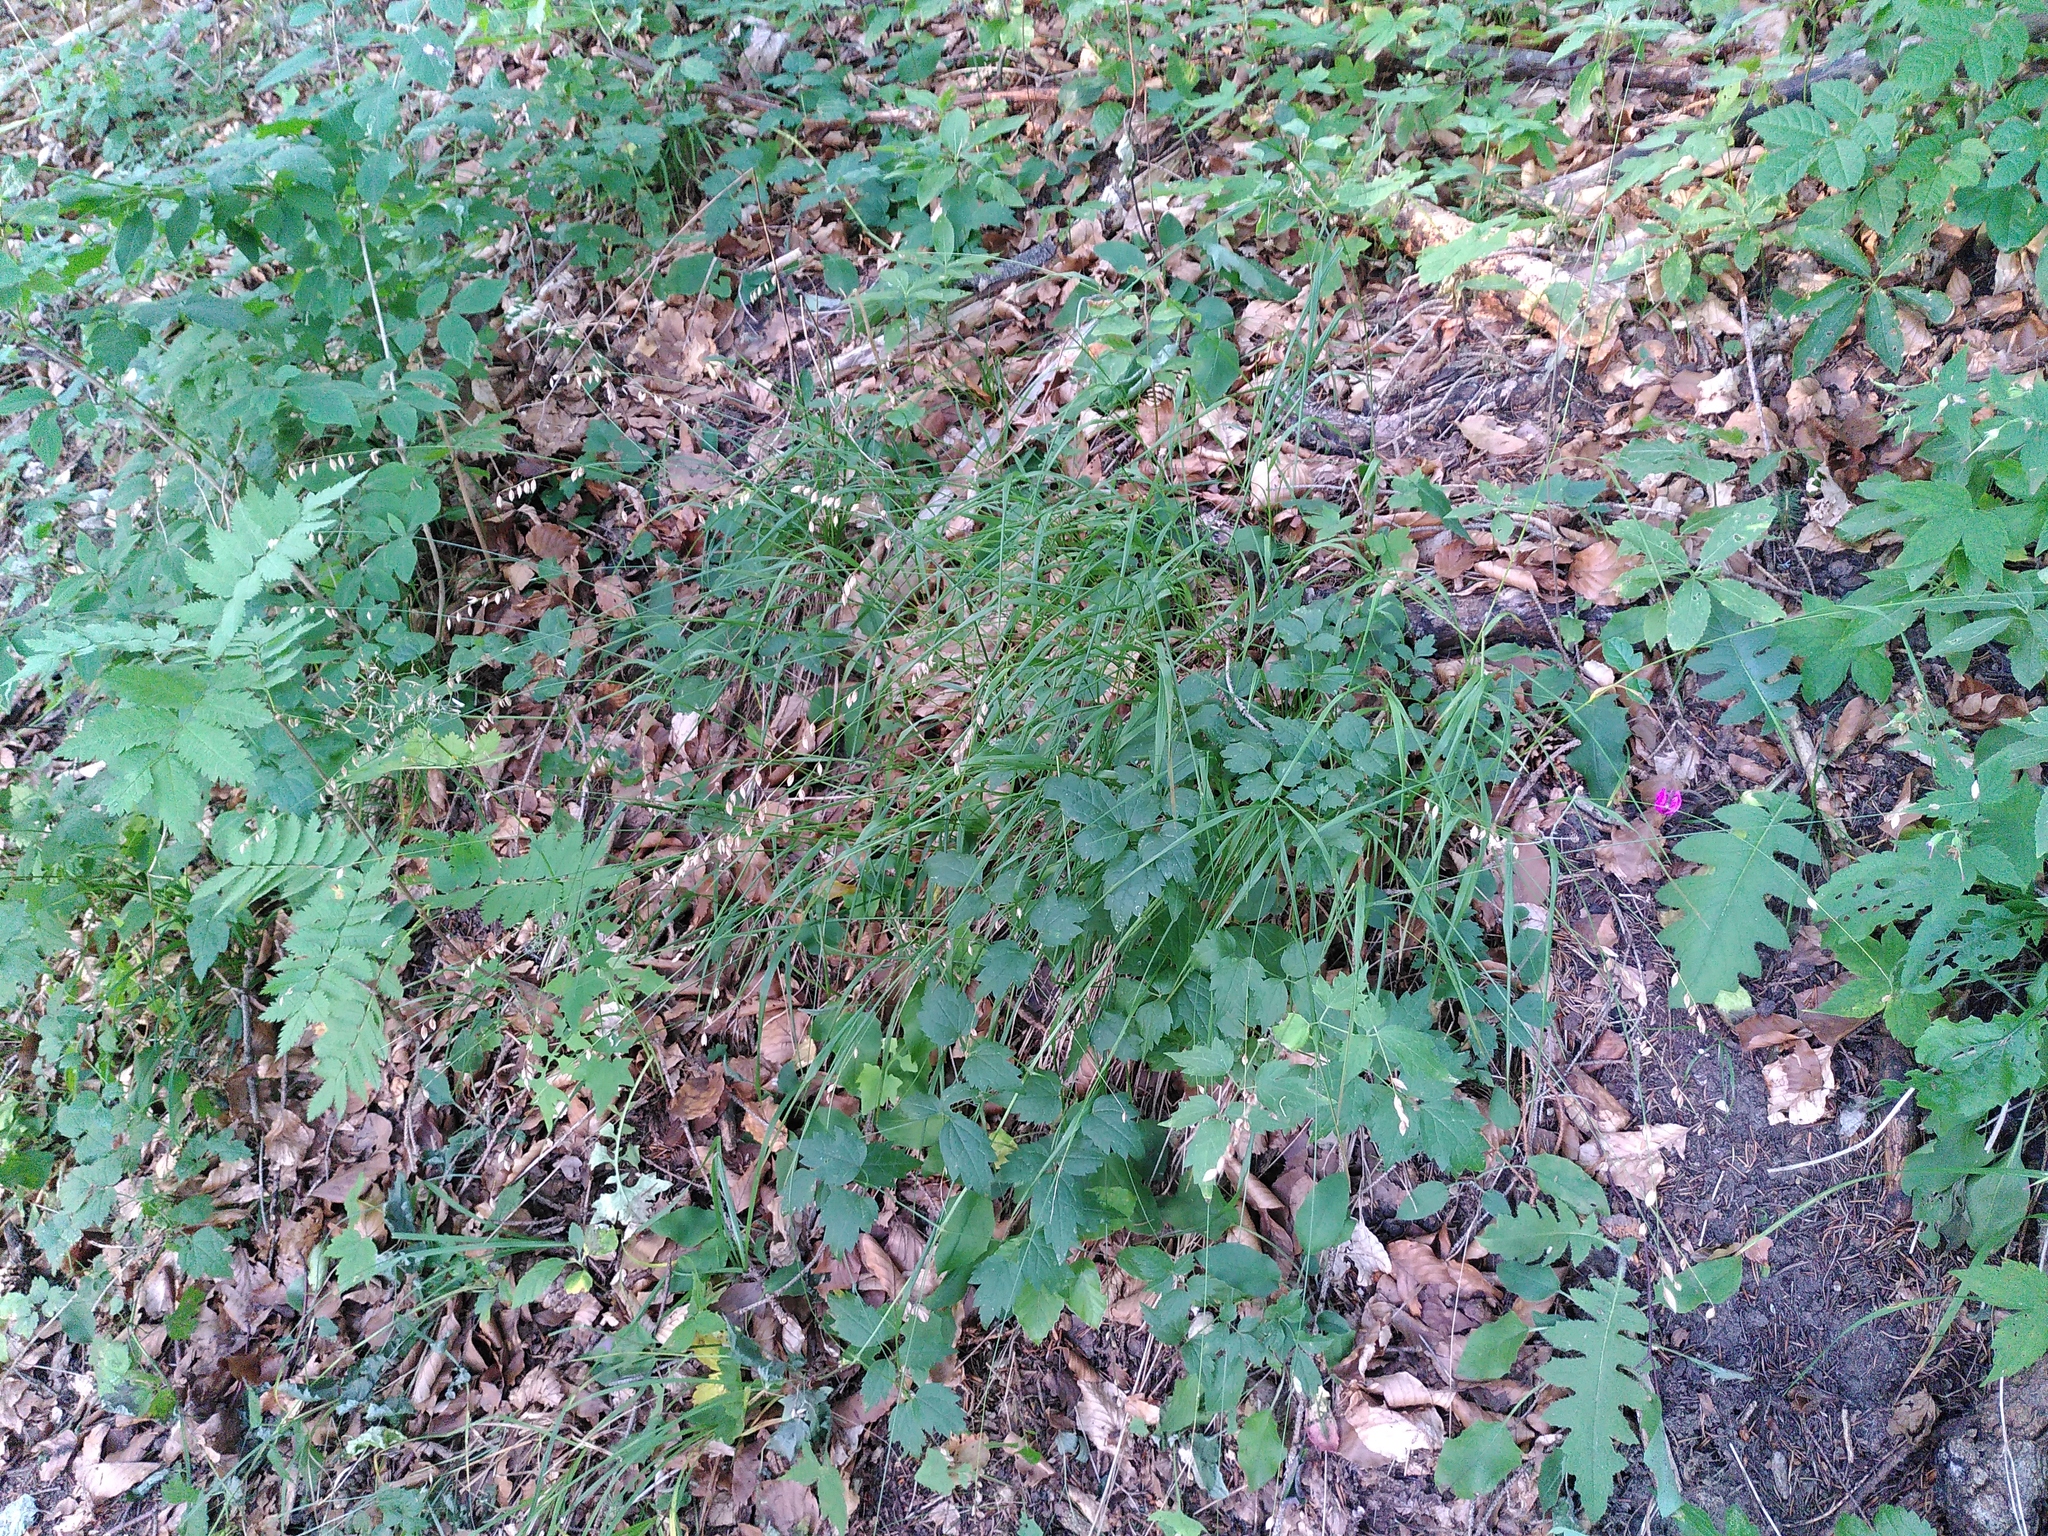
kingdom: Plantae
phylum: Tracheophyta
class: Liliopsida
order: Poales
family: Poaceae
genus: Melica
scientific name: Melica nutans
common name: Mountain melick
